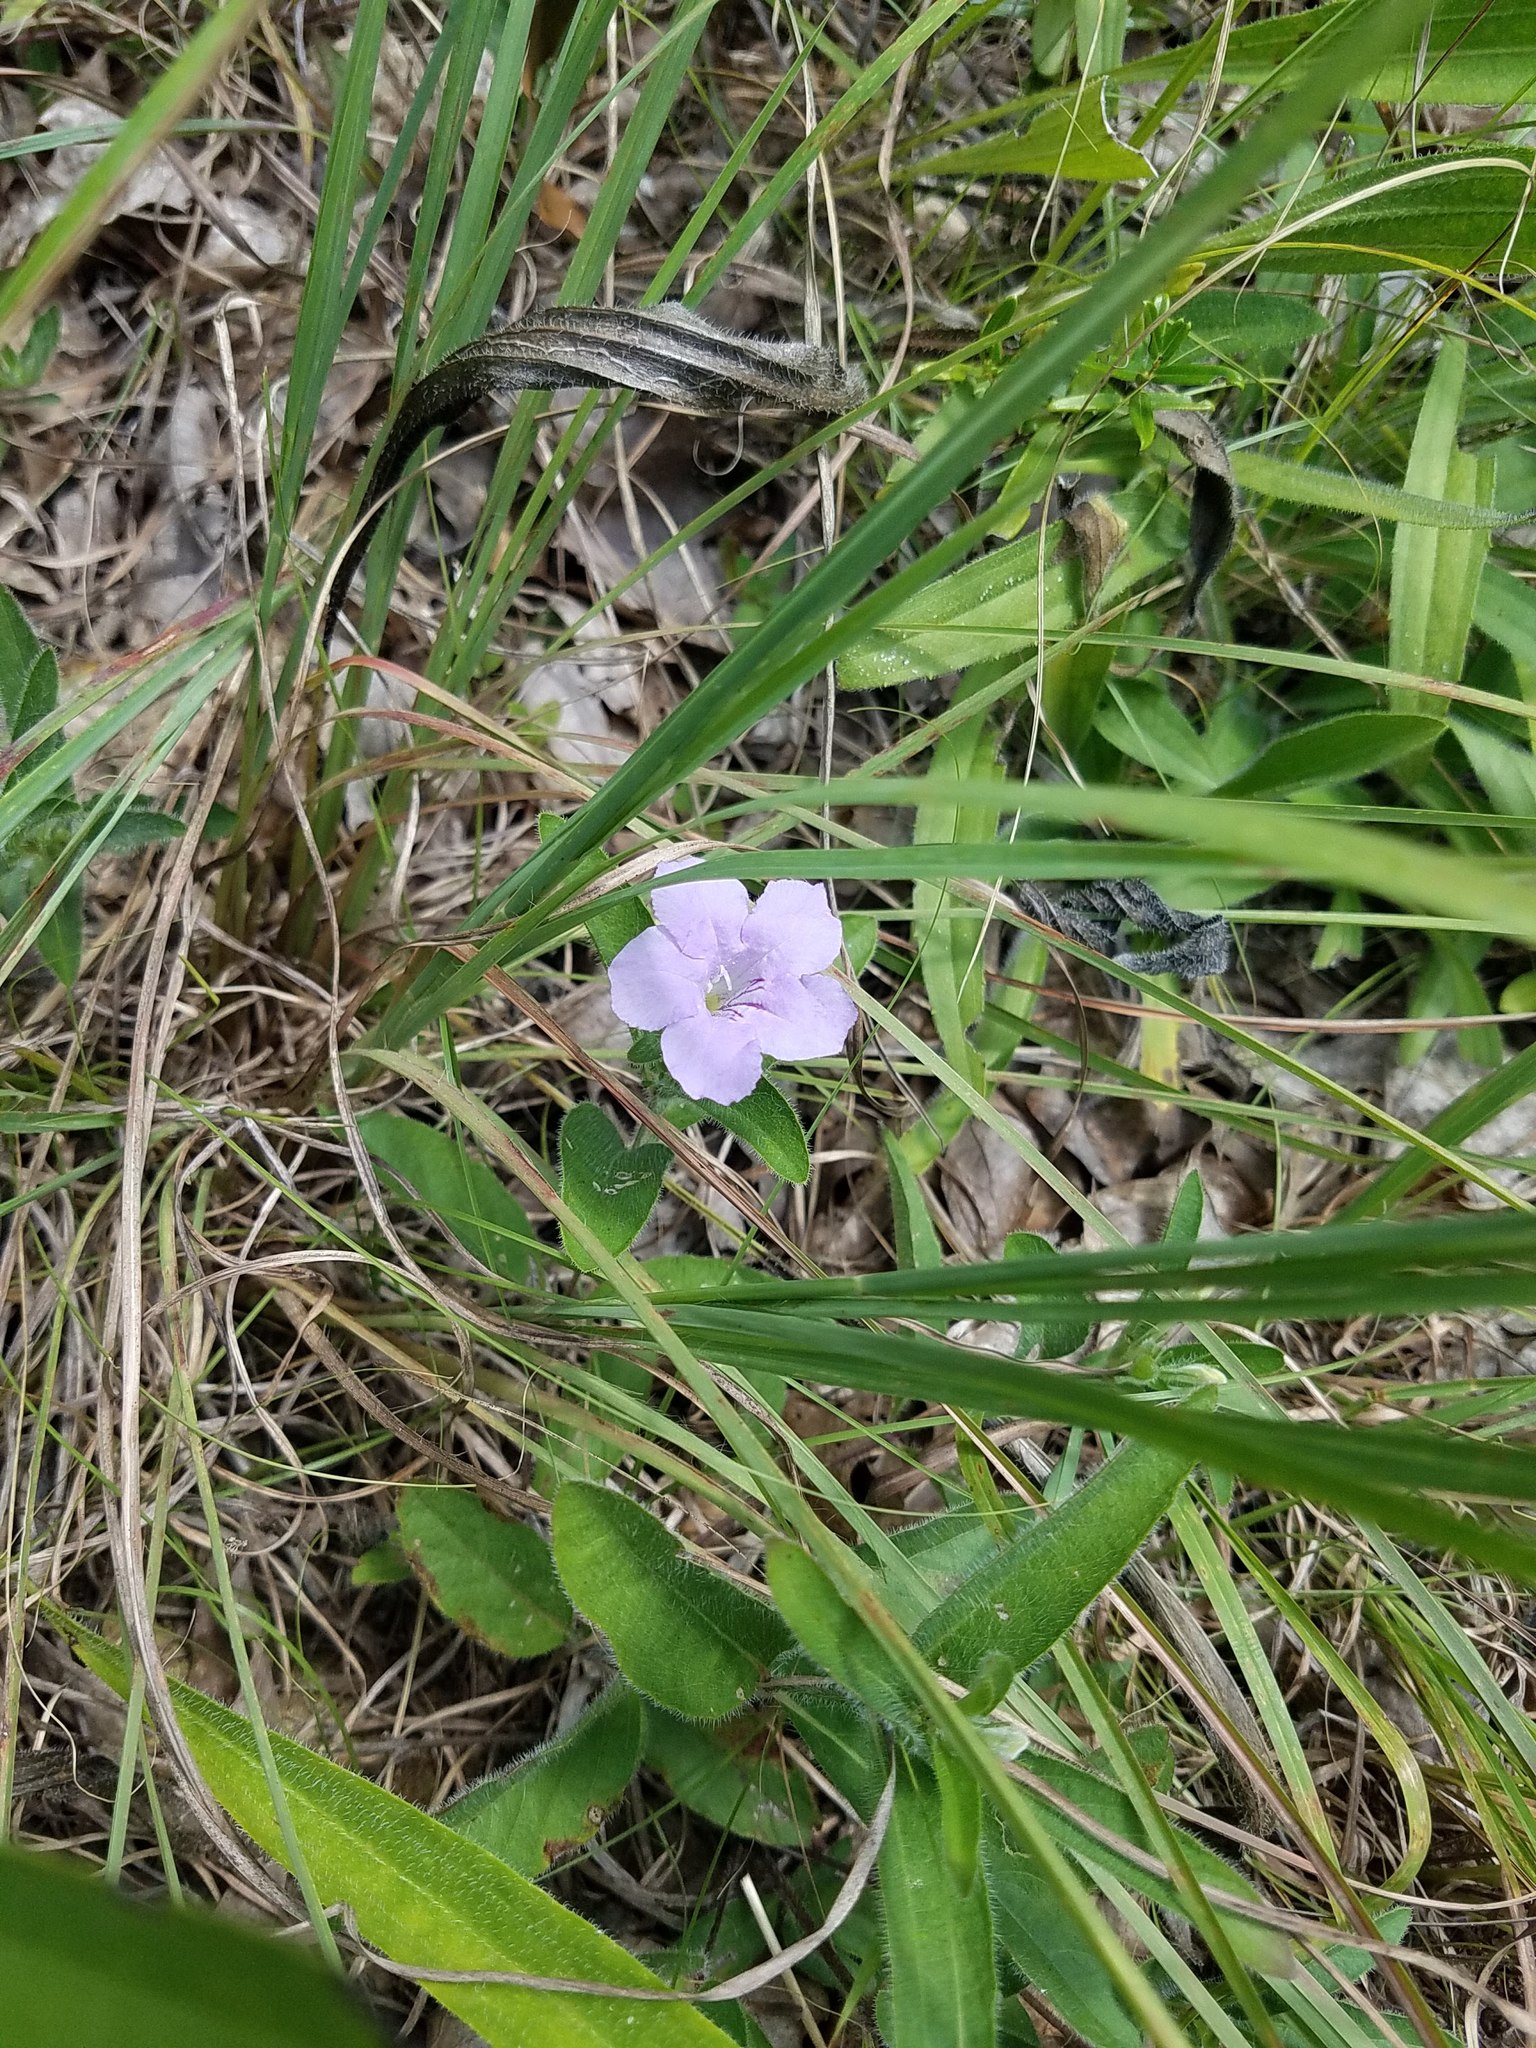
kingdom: Plantae
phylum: Tracheophyta
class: Magnoliopsida
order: Lamiales
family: Acanthaceae
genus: Ruellia
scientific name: Ruellia humilis
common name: Fringe-leaf ruellia
